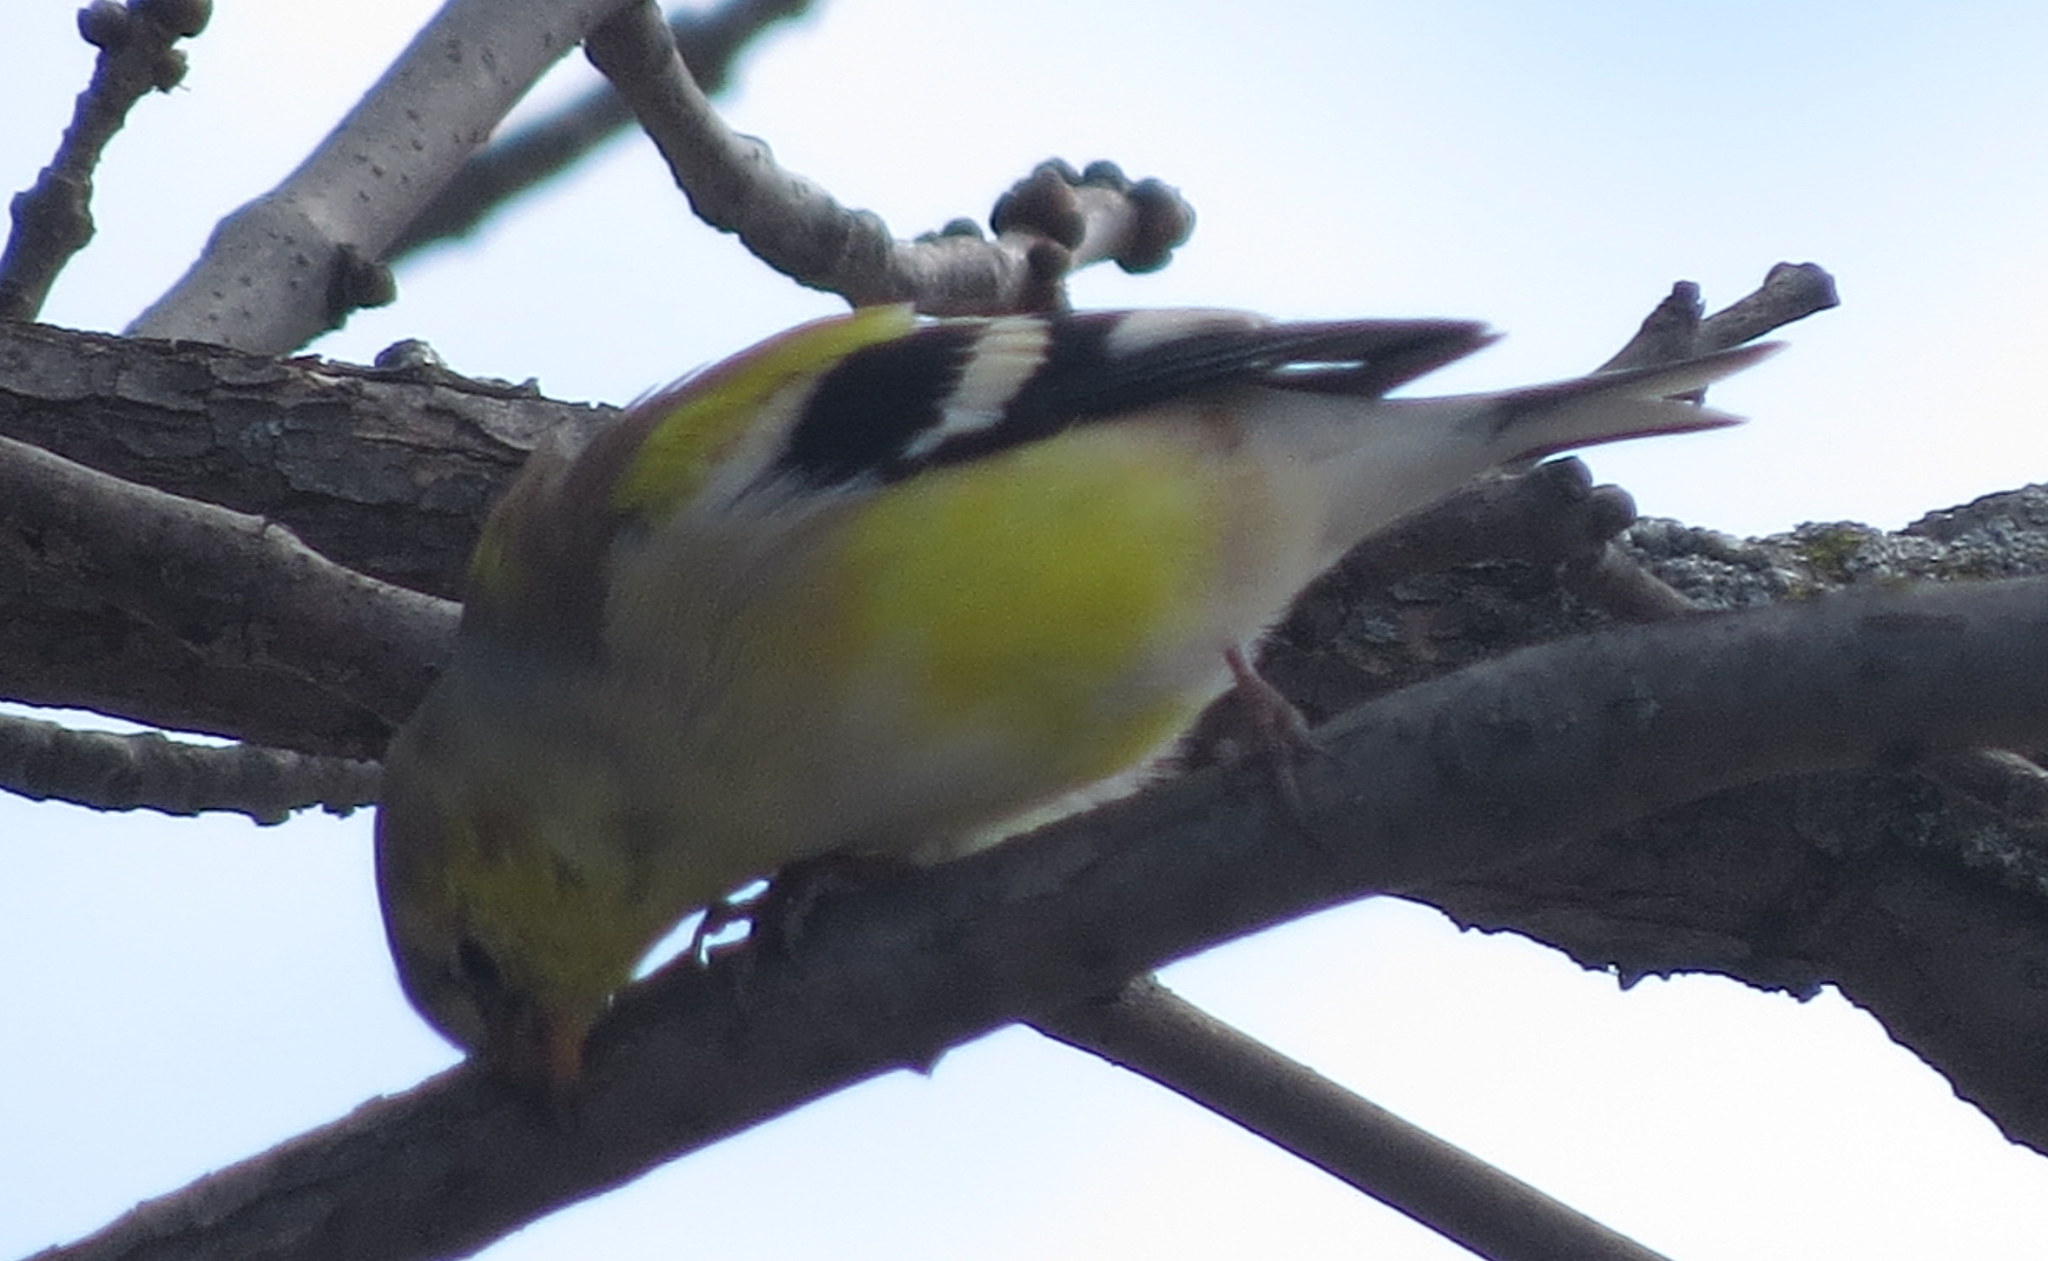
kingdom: Animalia
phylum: Chordata
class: Aves
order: Passeriformes
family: Fringillidae
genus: Spinus
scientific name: Spinus tristis
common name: American goldfinch
